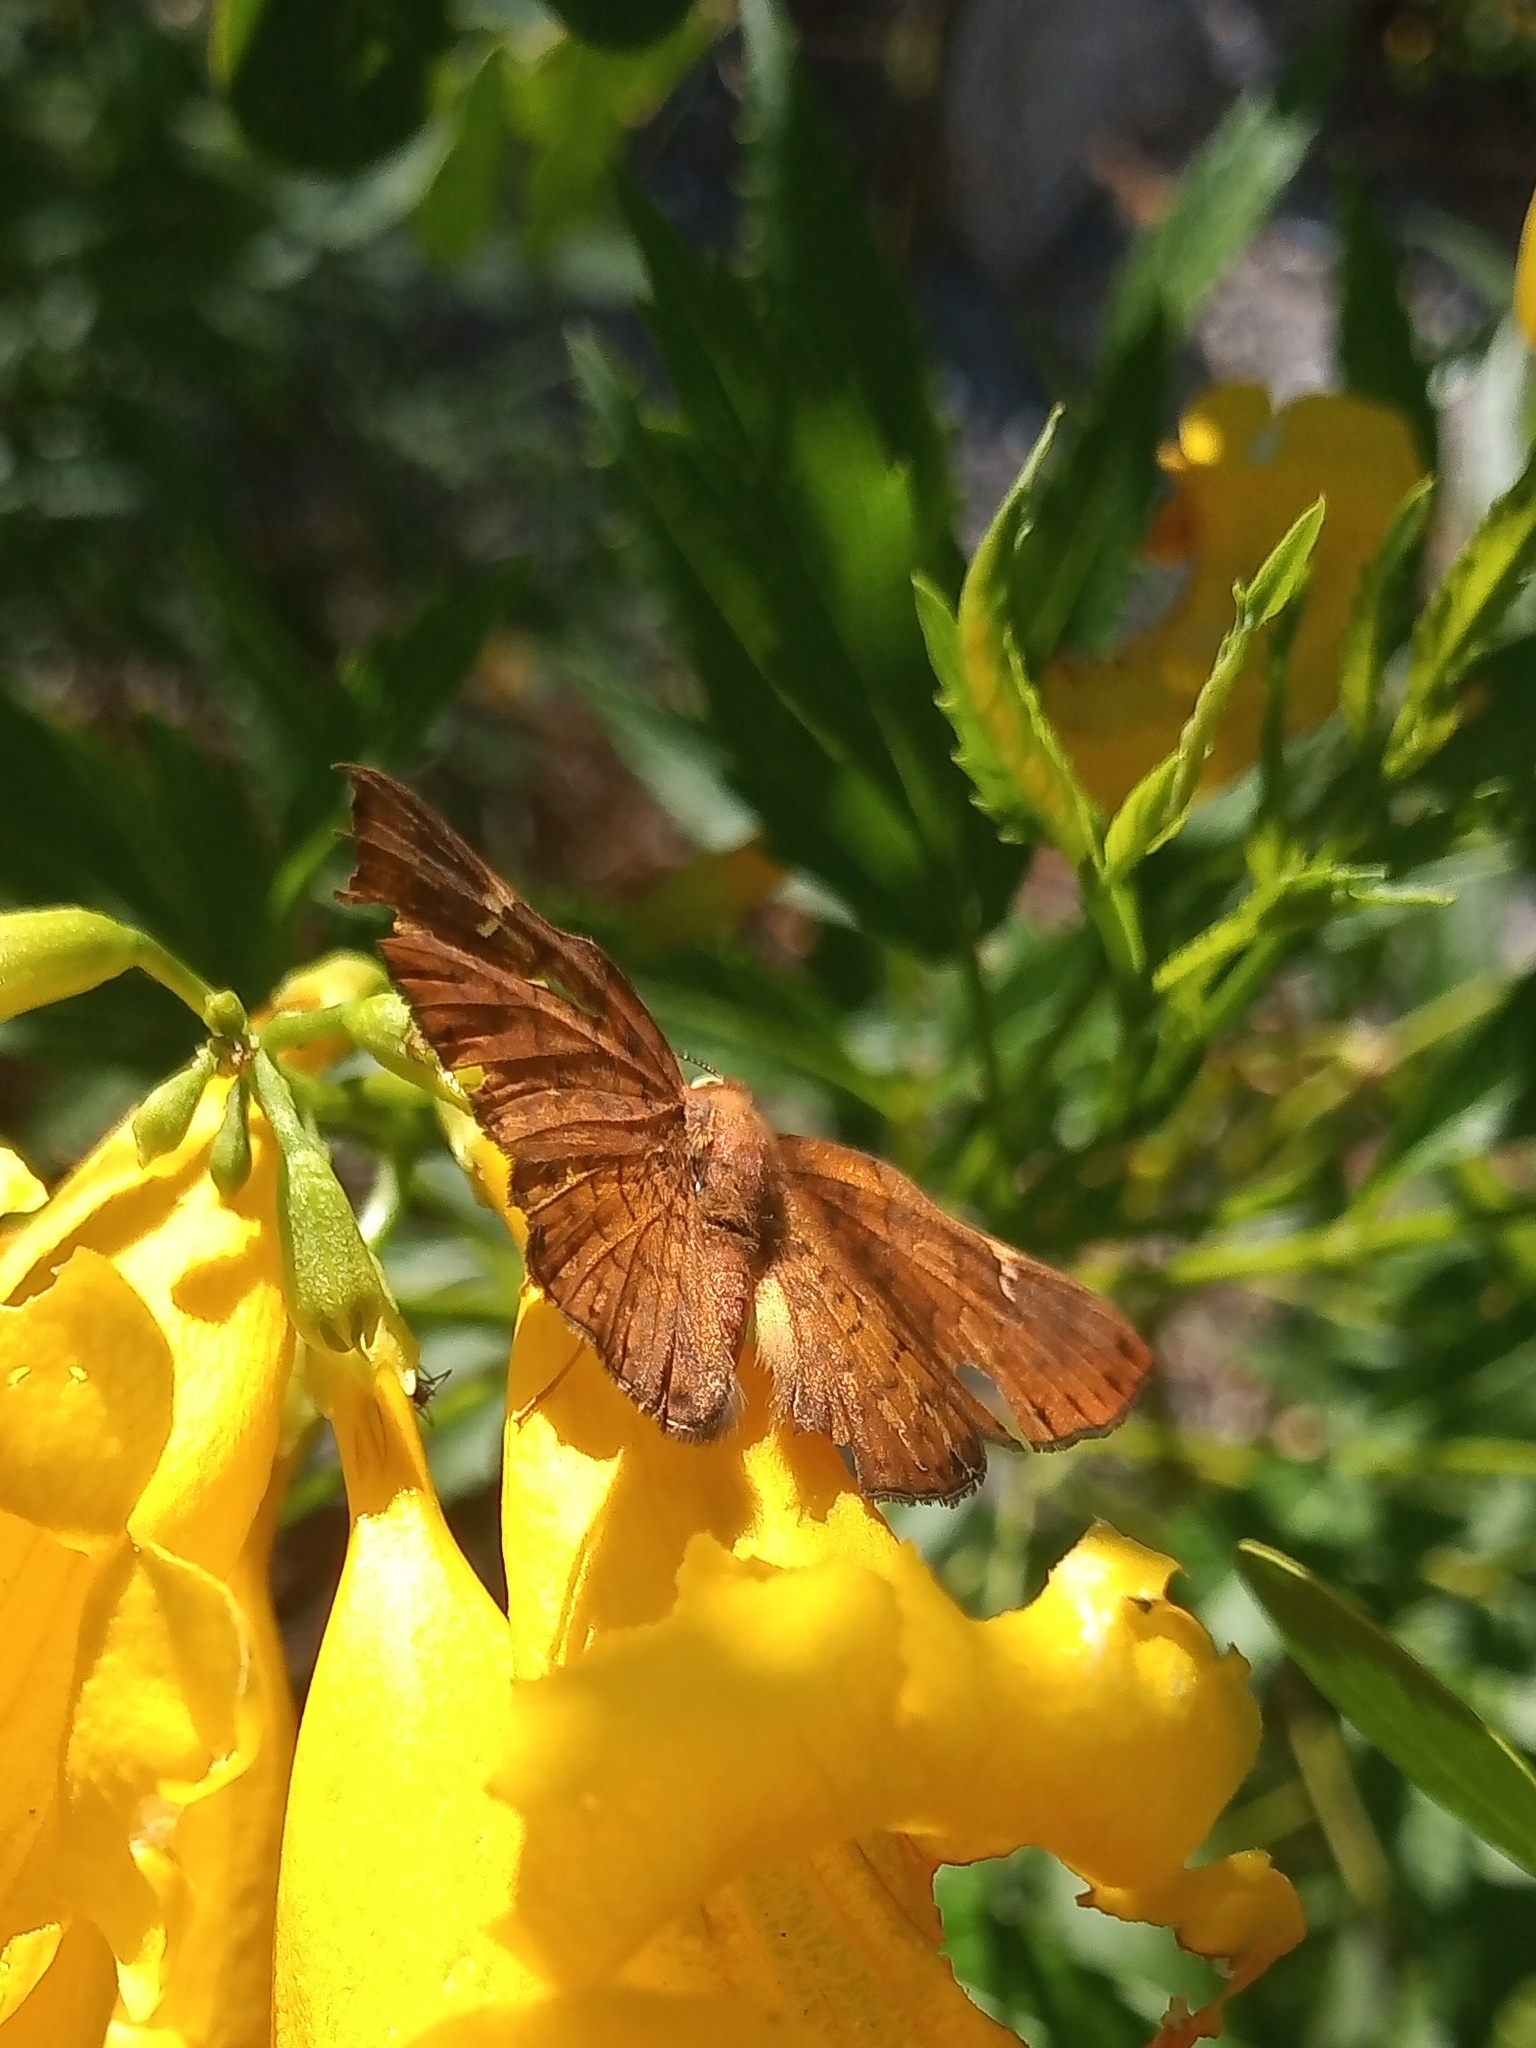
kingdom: Animalia
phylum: Arthropoda
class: Insecta
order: Lepidoptera
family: Riodinidae
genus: Curvie
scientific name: Curvie emesia
